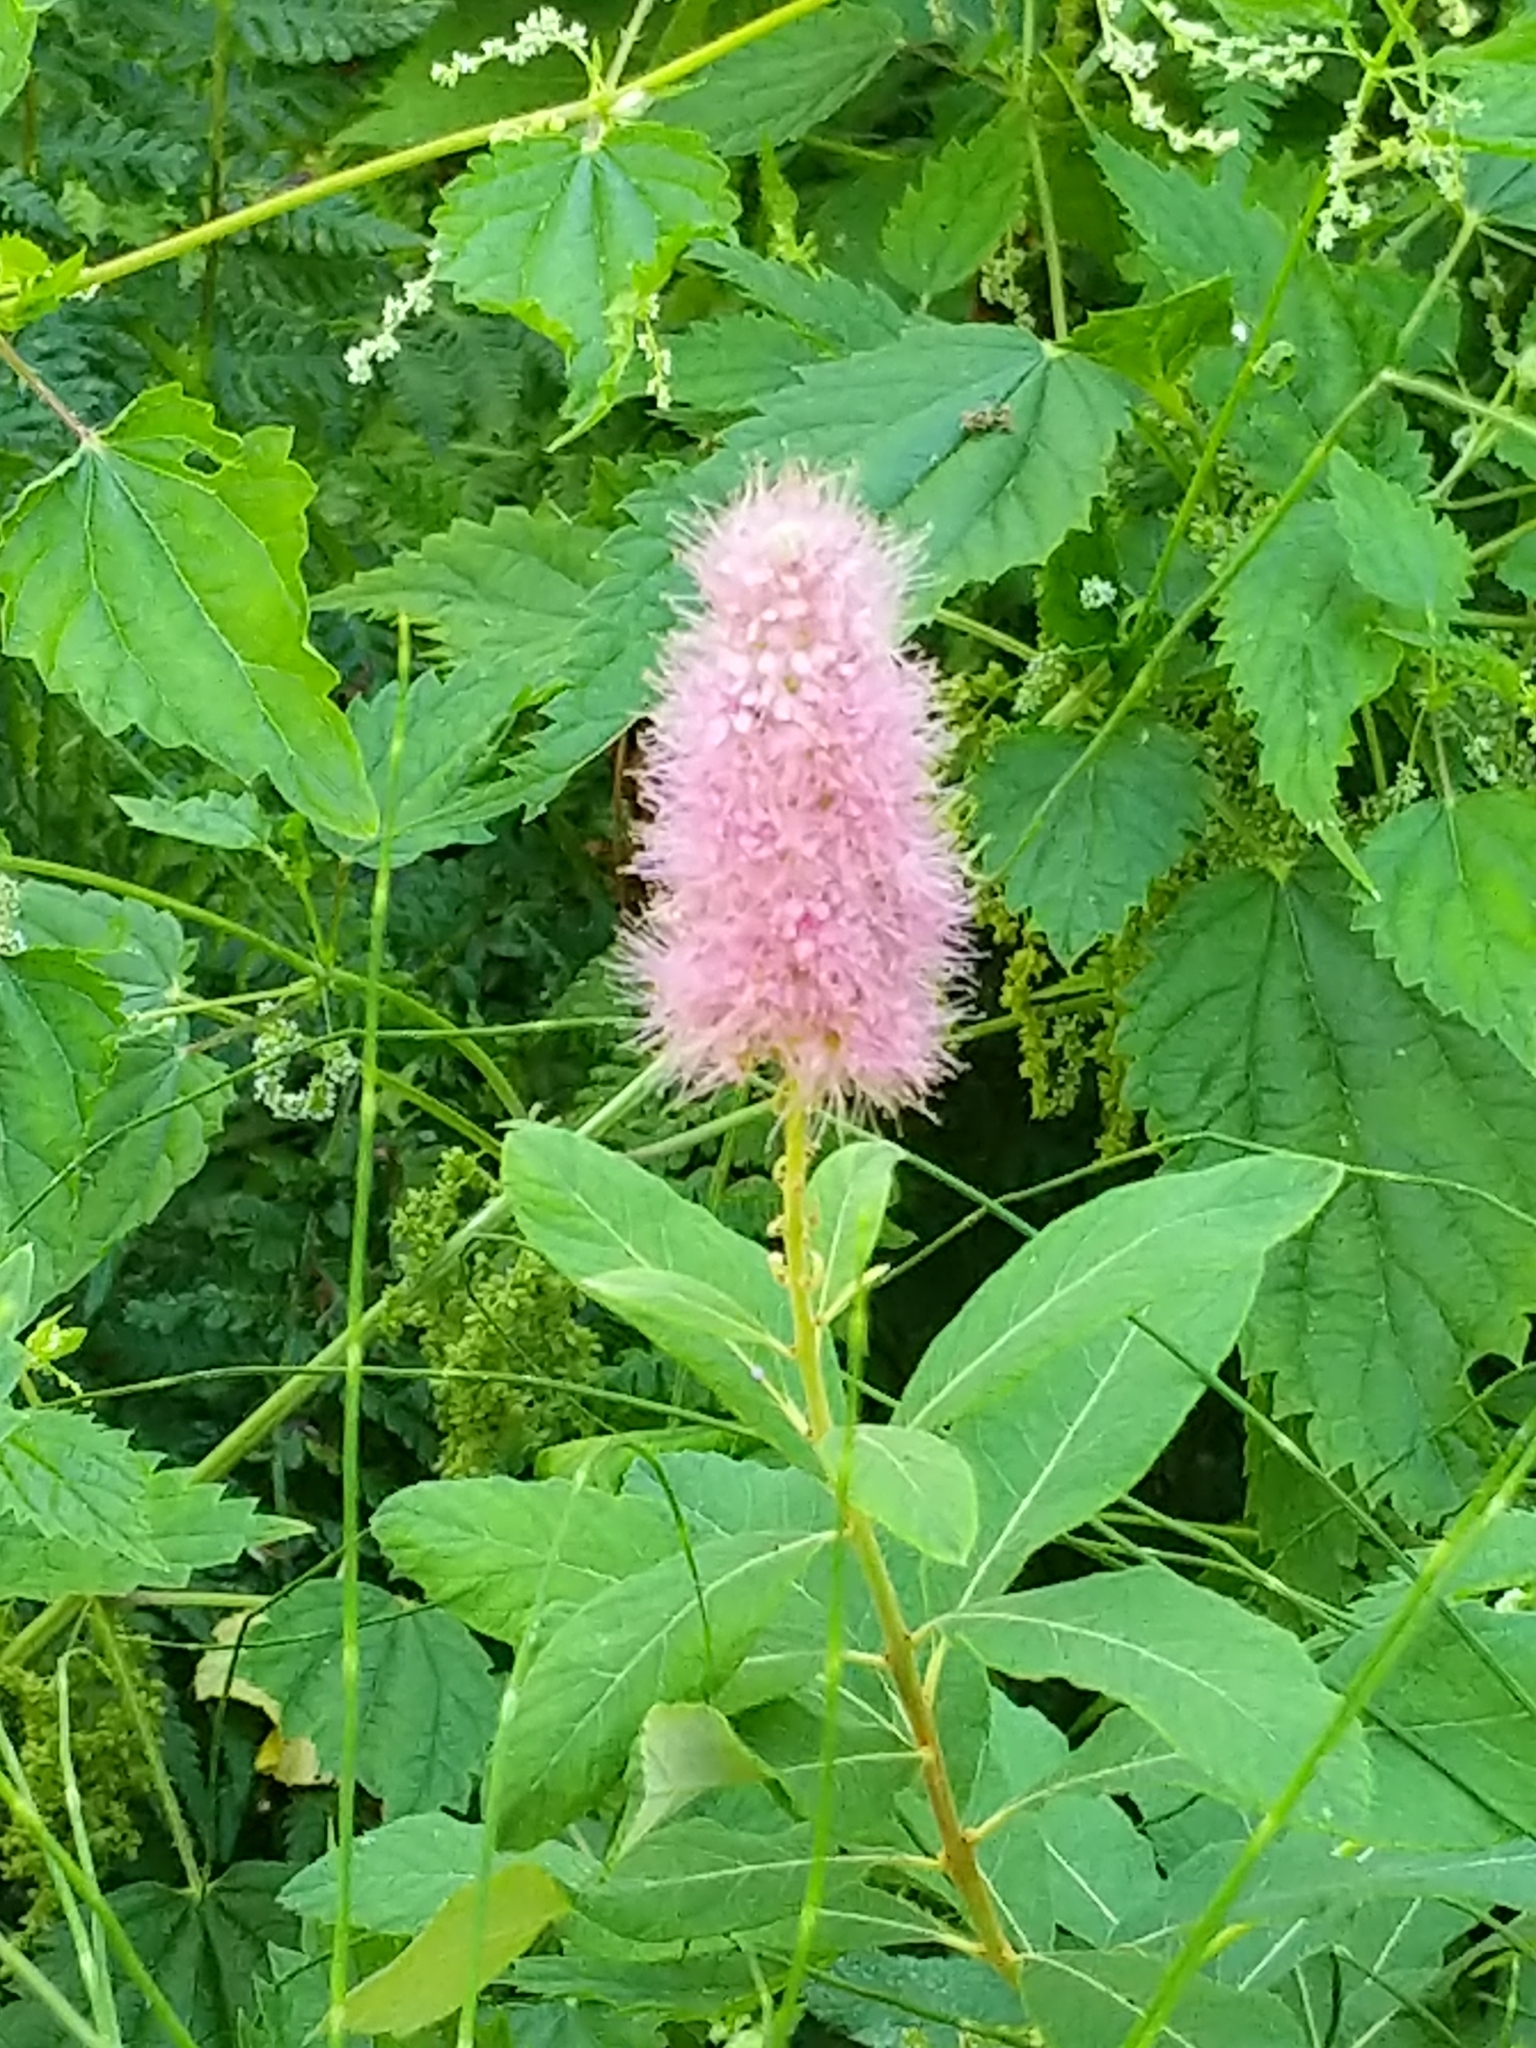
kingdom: Plantae
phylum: Tracheophyta
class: Magnoliopsida
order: Rosales
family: Rosaceae
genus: Spiraea
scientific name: Spiraea douglasii
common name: Steeplebush
